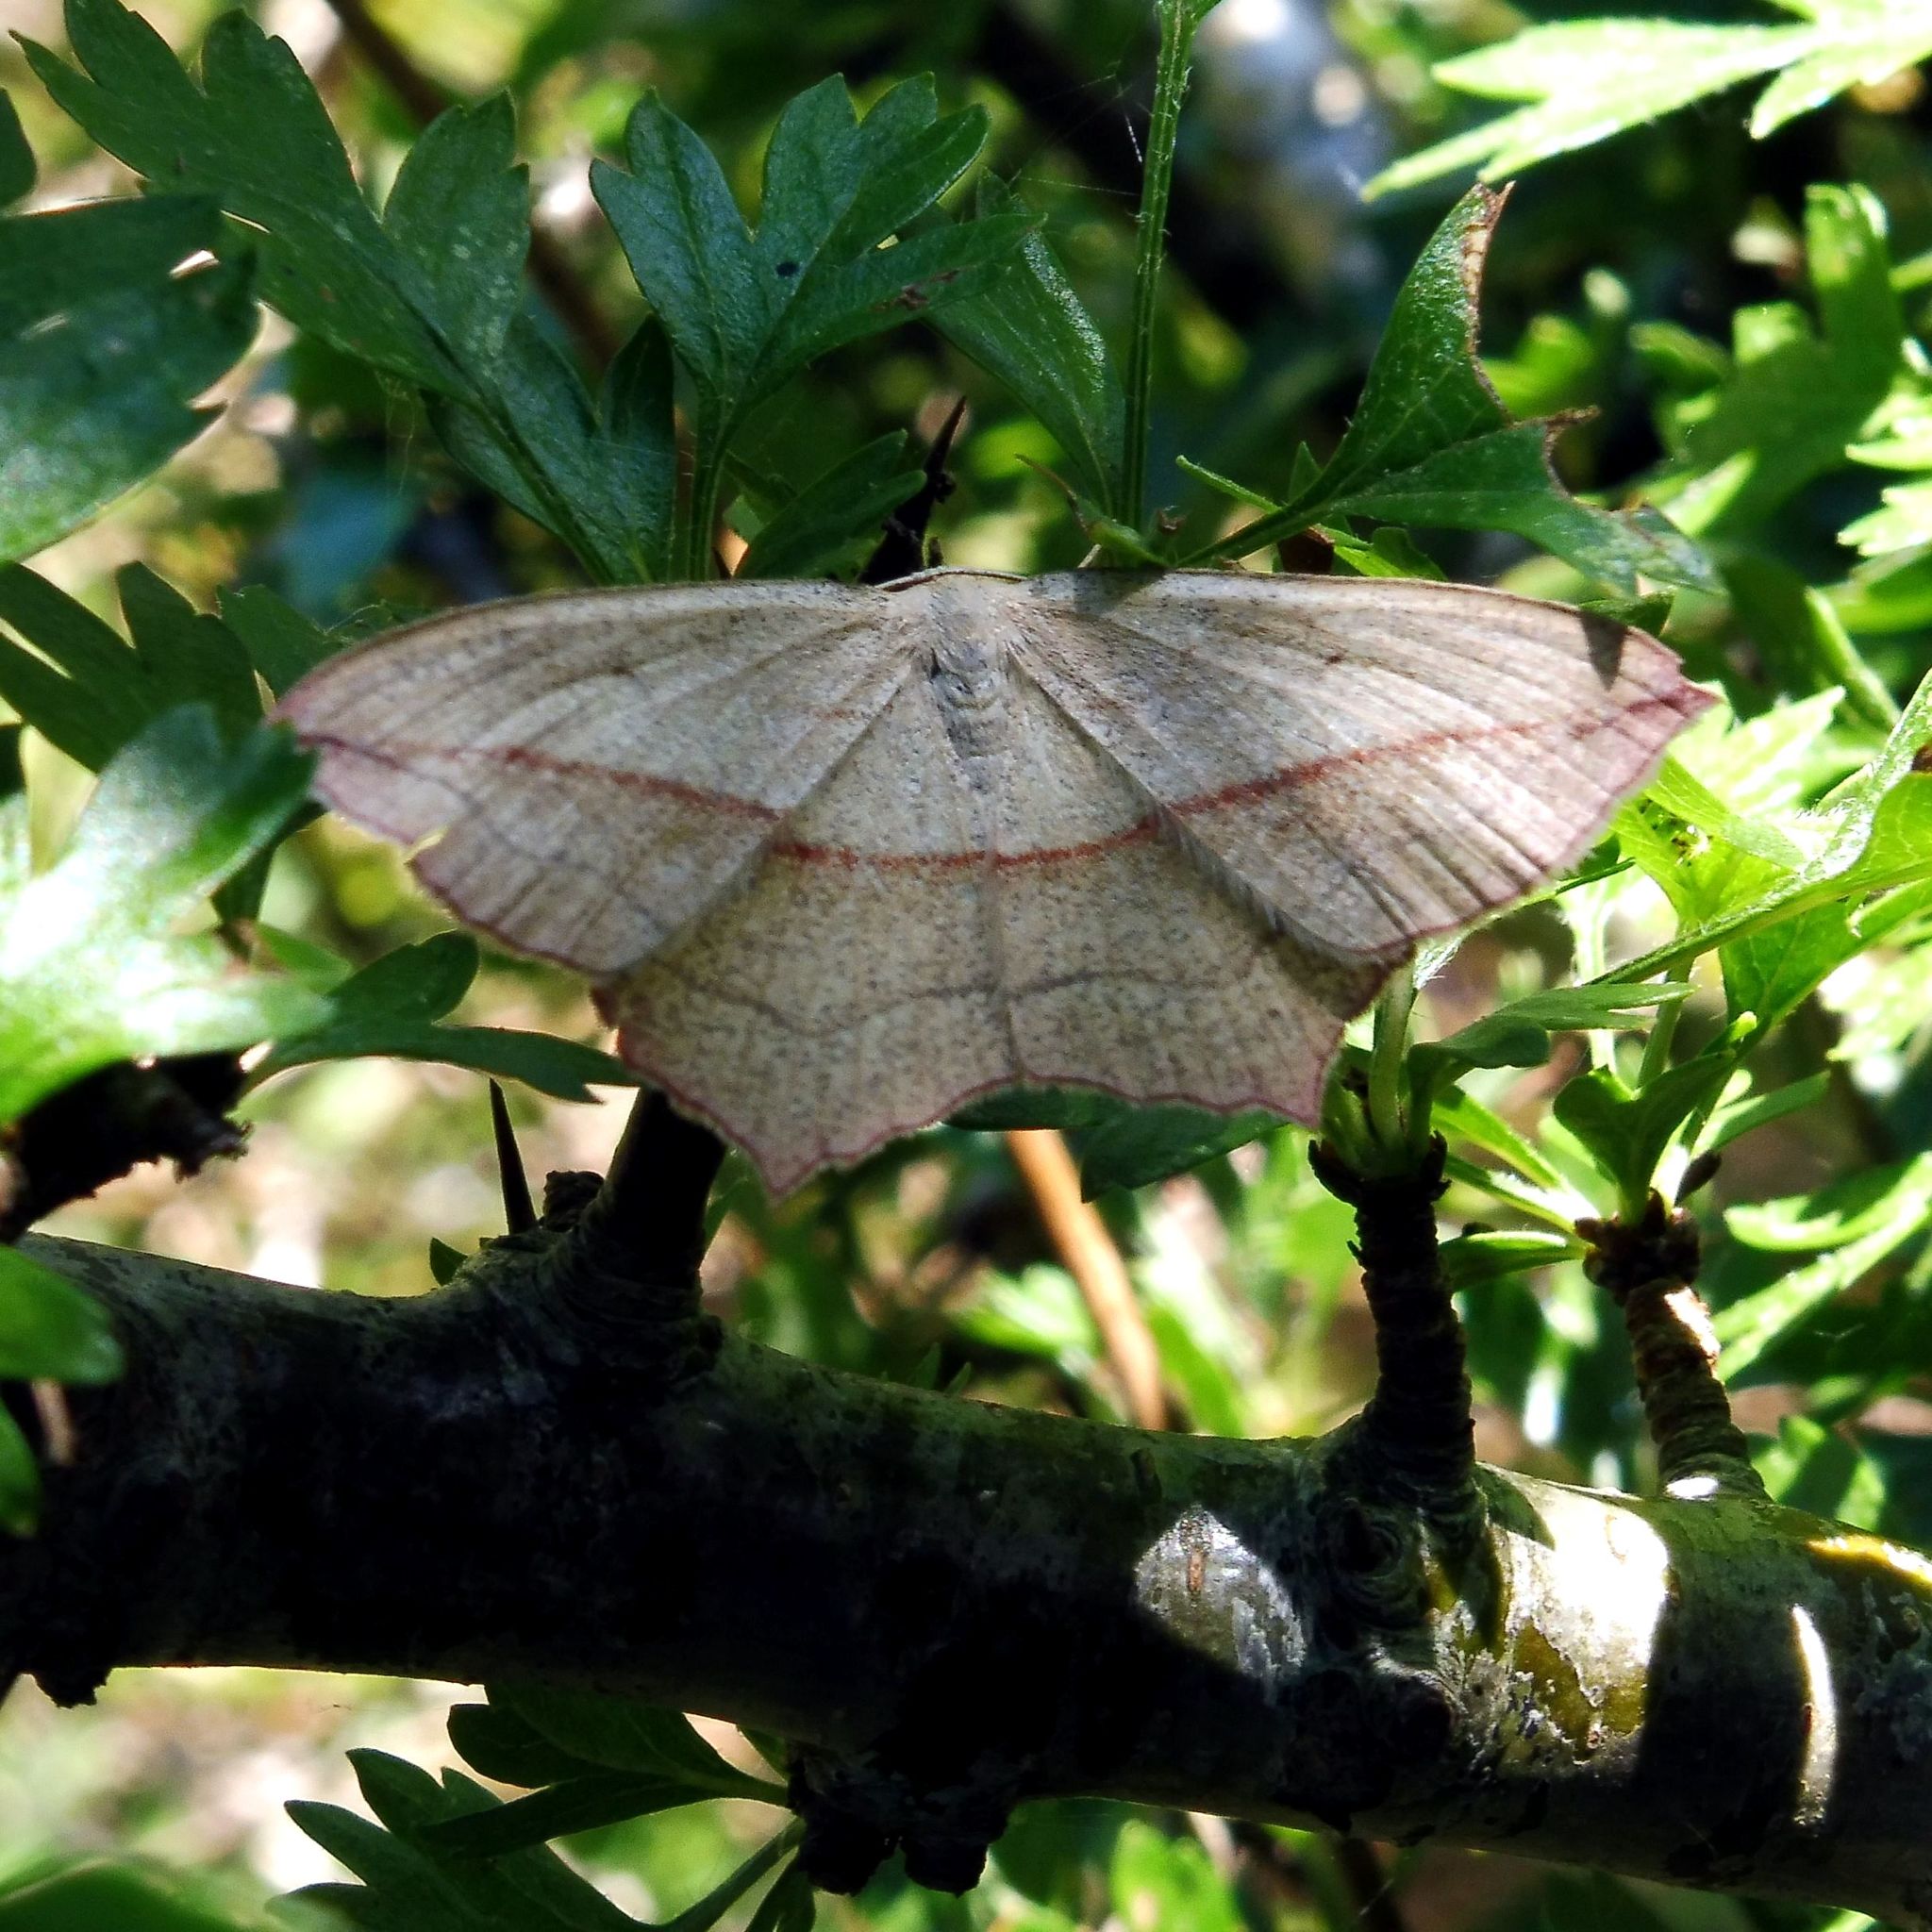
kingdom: Animalia
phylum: Arthropoda
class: Insecta
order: Lepidoptera
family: Geometridae
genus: Timandra
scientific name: Timandra comae
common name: Blood-vein
